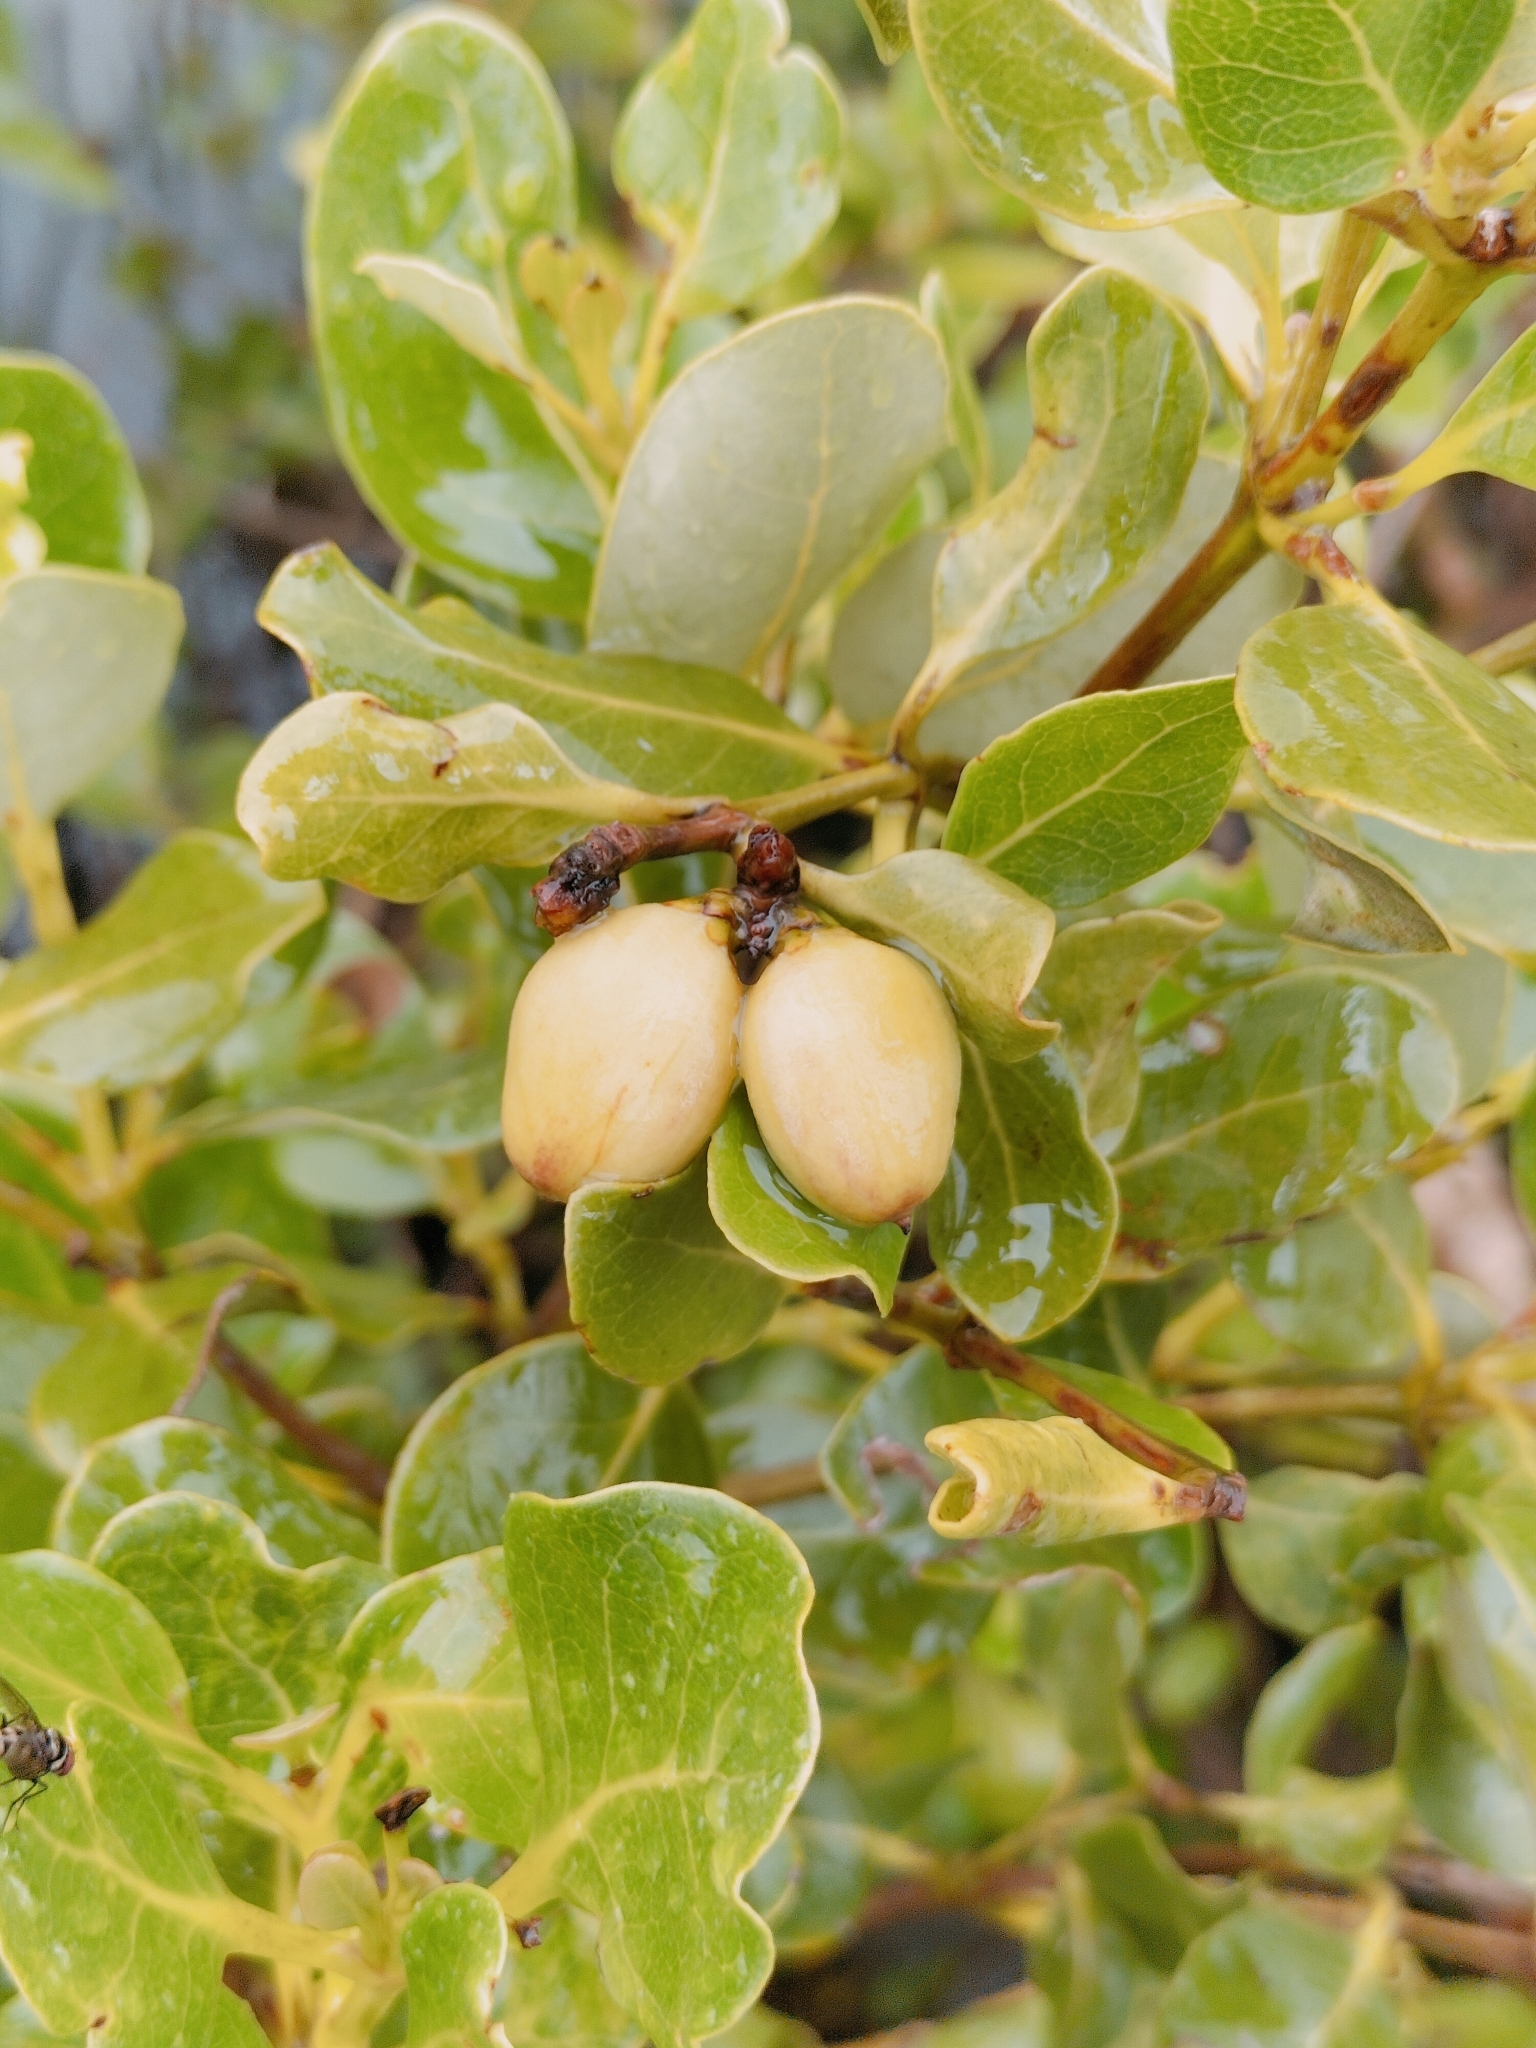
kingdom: Plantae
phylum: Tracheophyta
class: Magnoliopsida
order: Lamiales
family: Acanthaceae
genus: Avicennia
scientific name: Avicennia marina
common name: Gray mangrove
